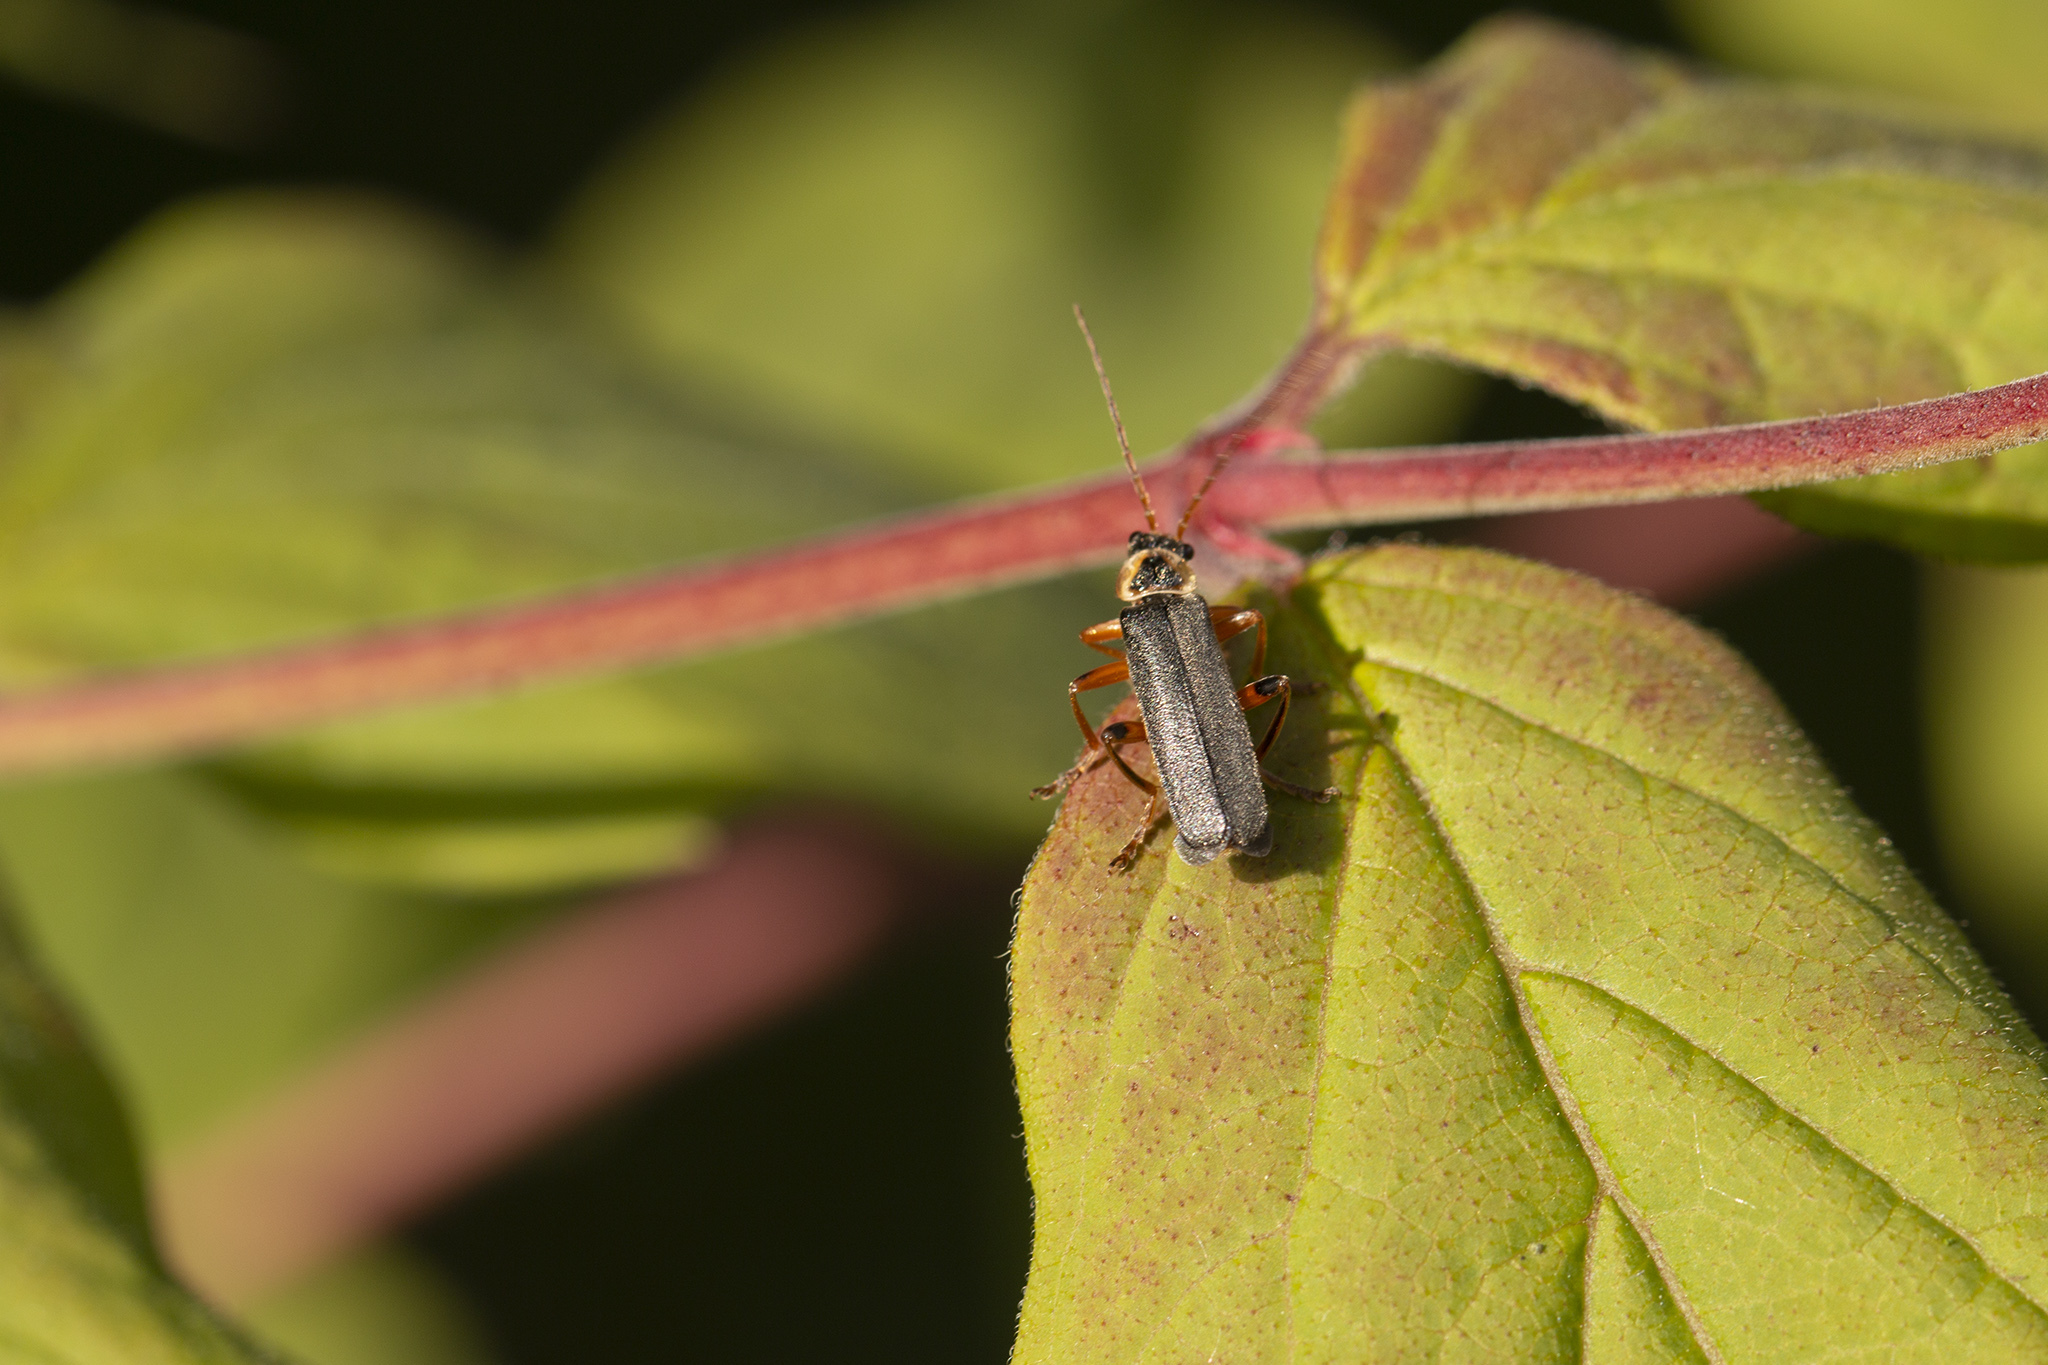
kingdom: Animalia
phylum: Arthropoda
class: Insecta
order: Coleoptera
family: Cantharidae
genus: Cantharis
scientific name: Cantharis nigricans
